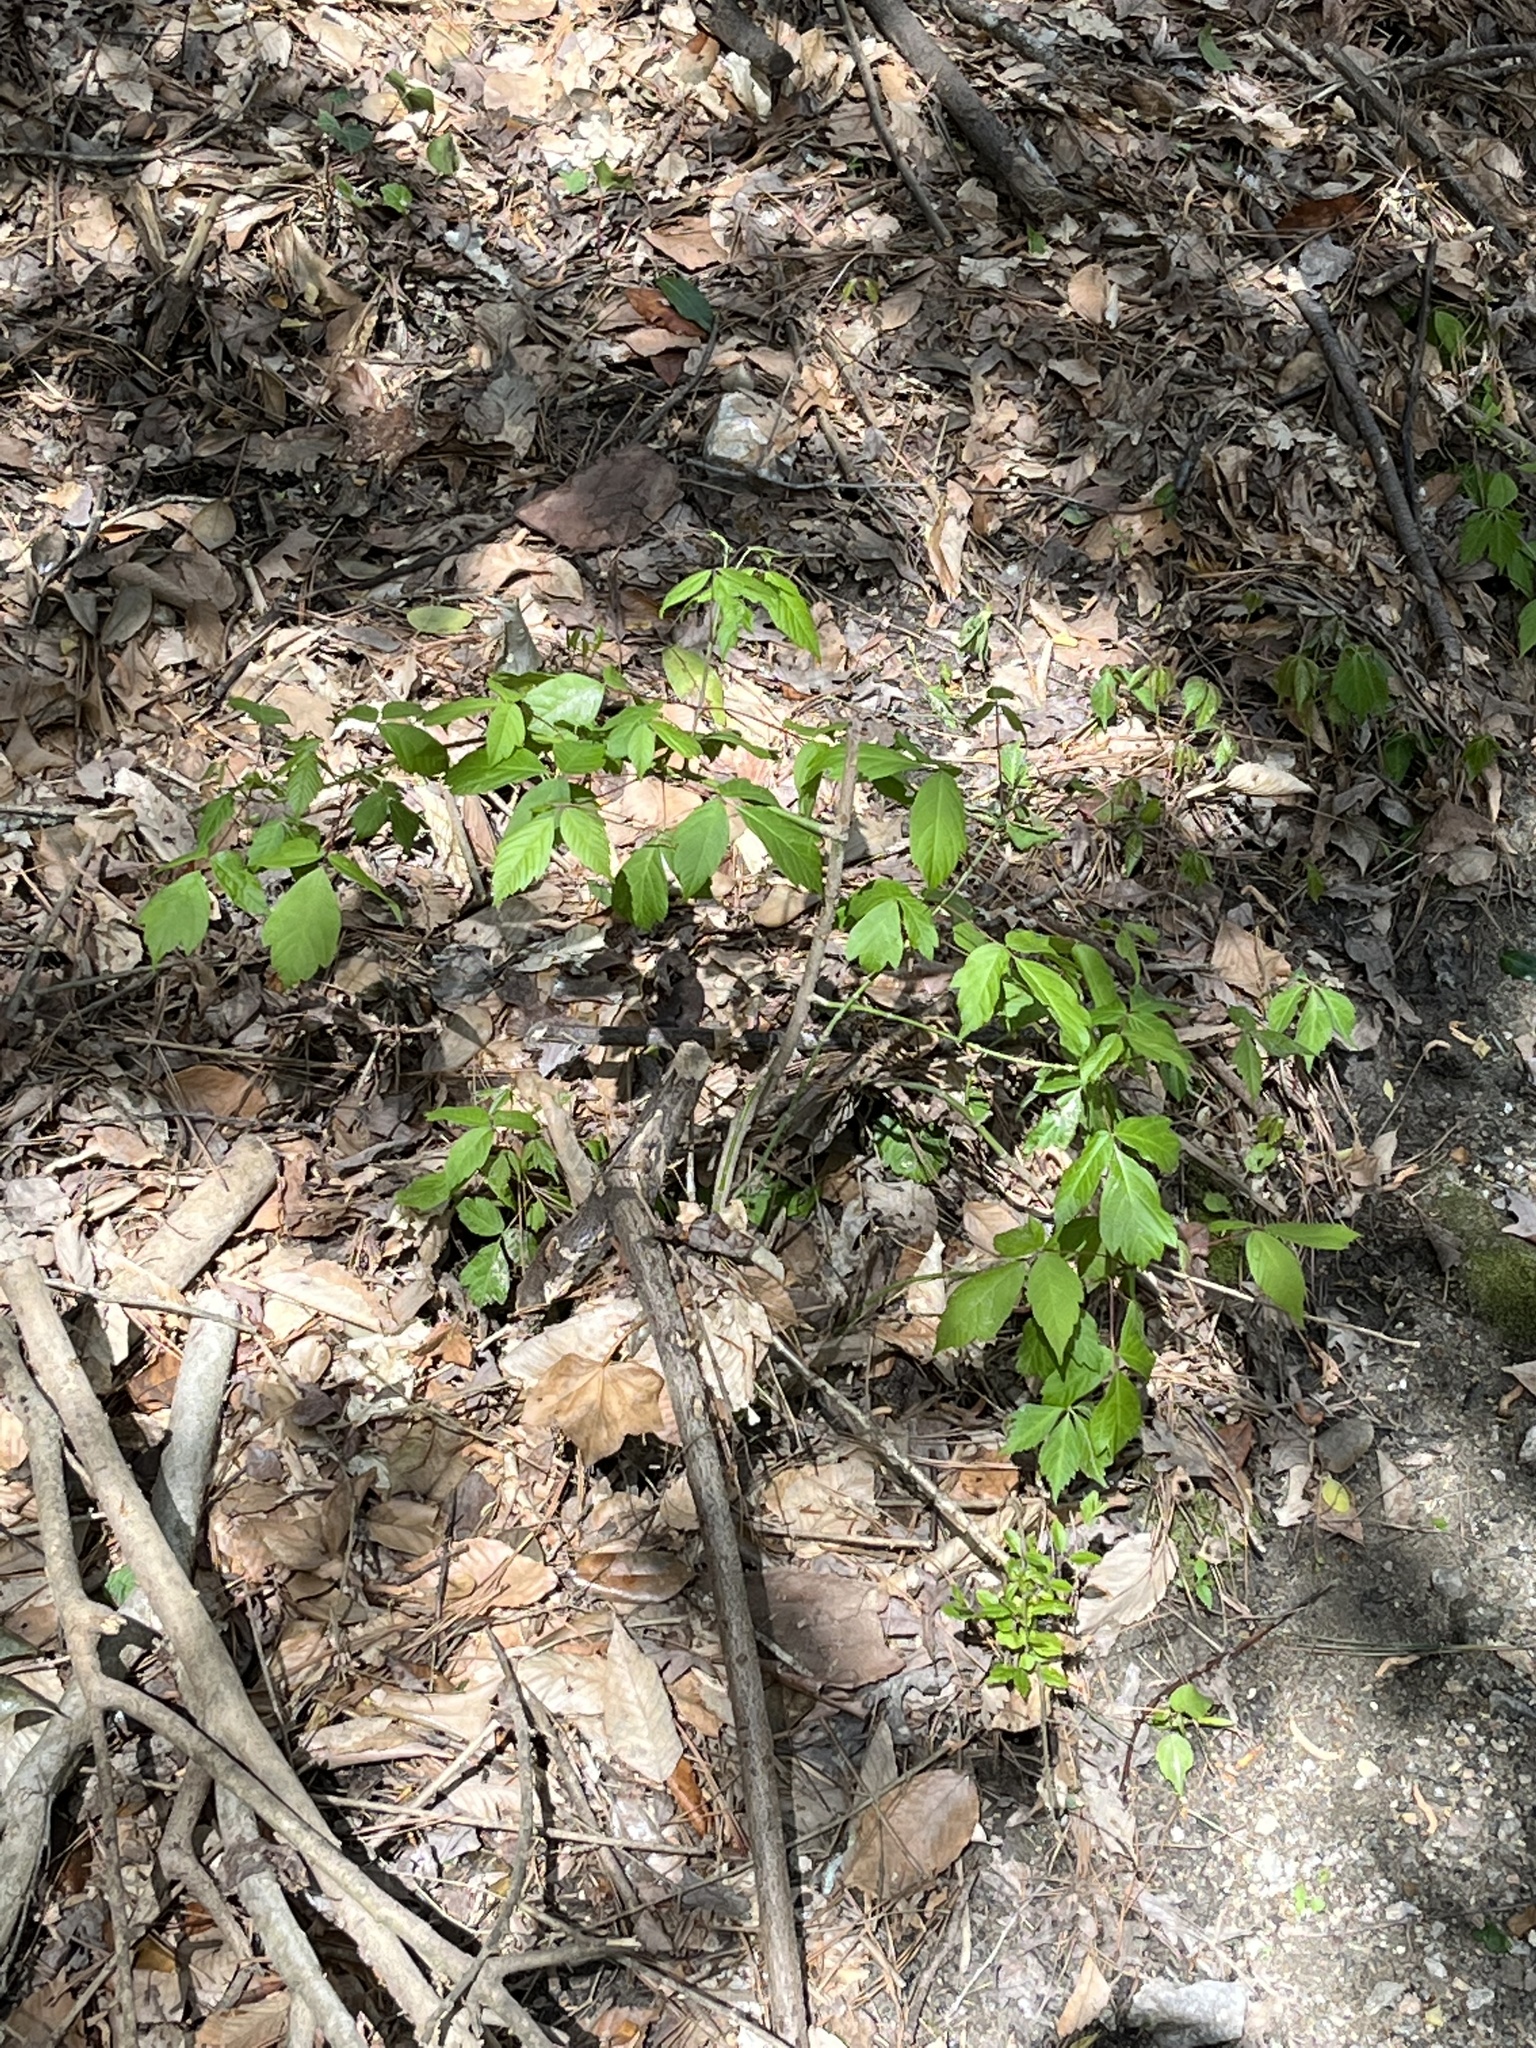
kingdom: Plantae
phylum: Tracheophyta
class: Magnoliopsida
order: Sapindales
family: Sapindaceae
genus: Acer
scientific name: Acer negundo
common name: Ashleaf maple
